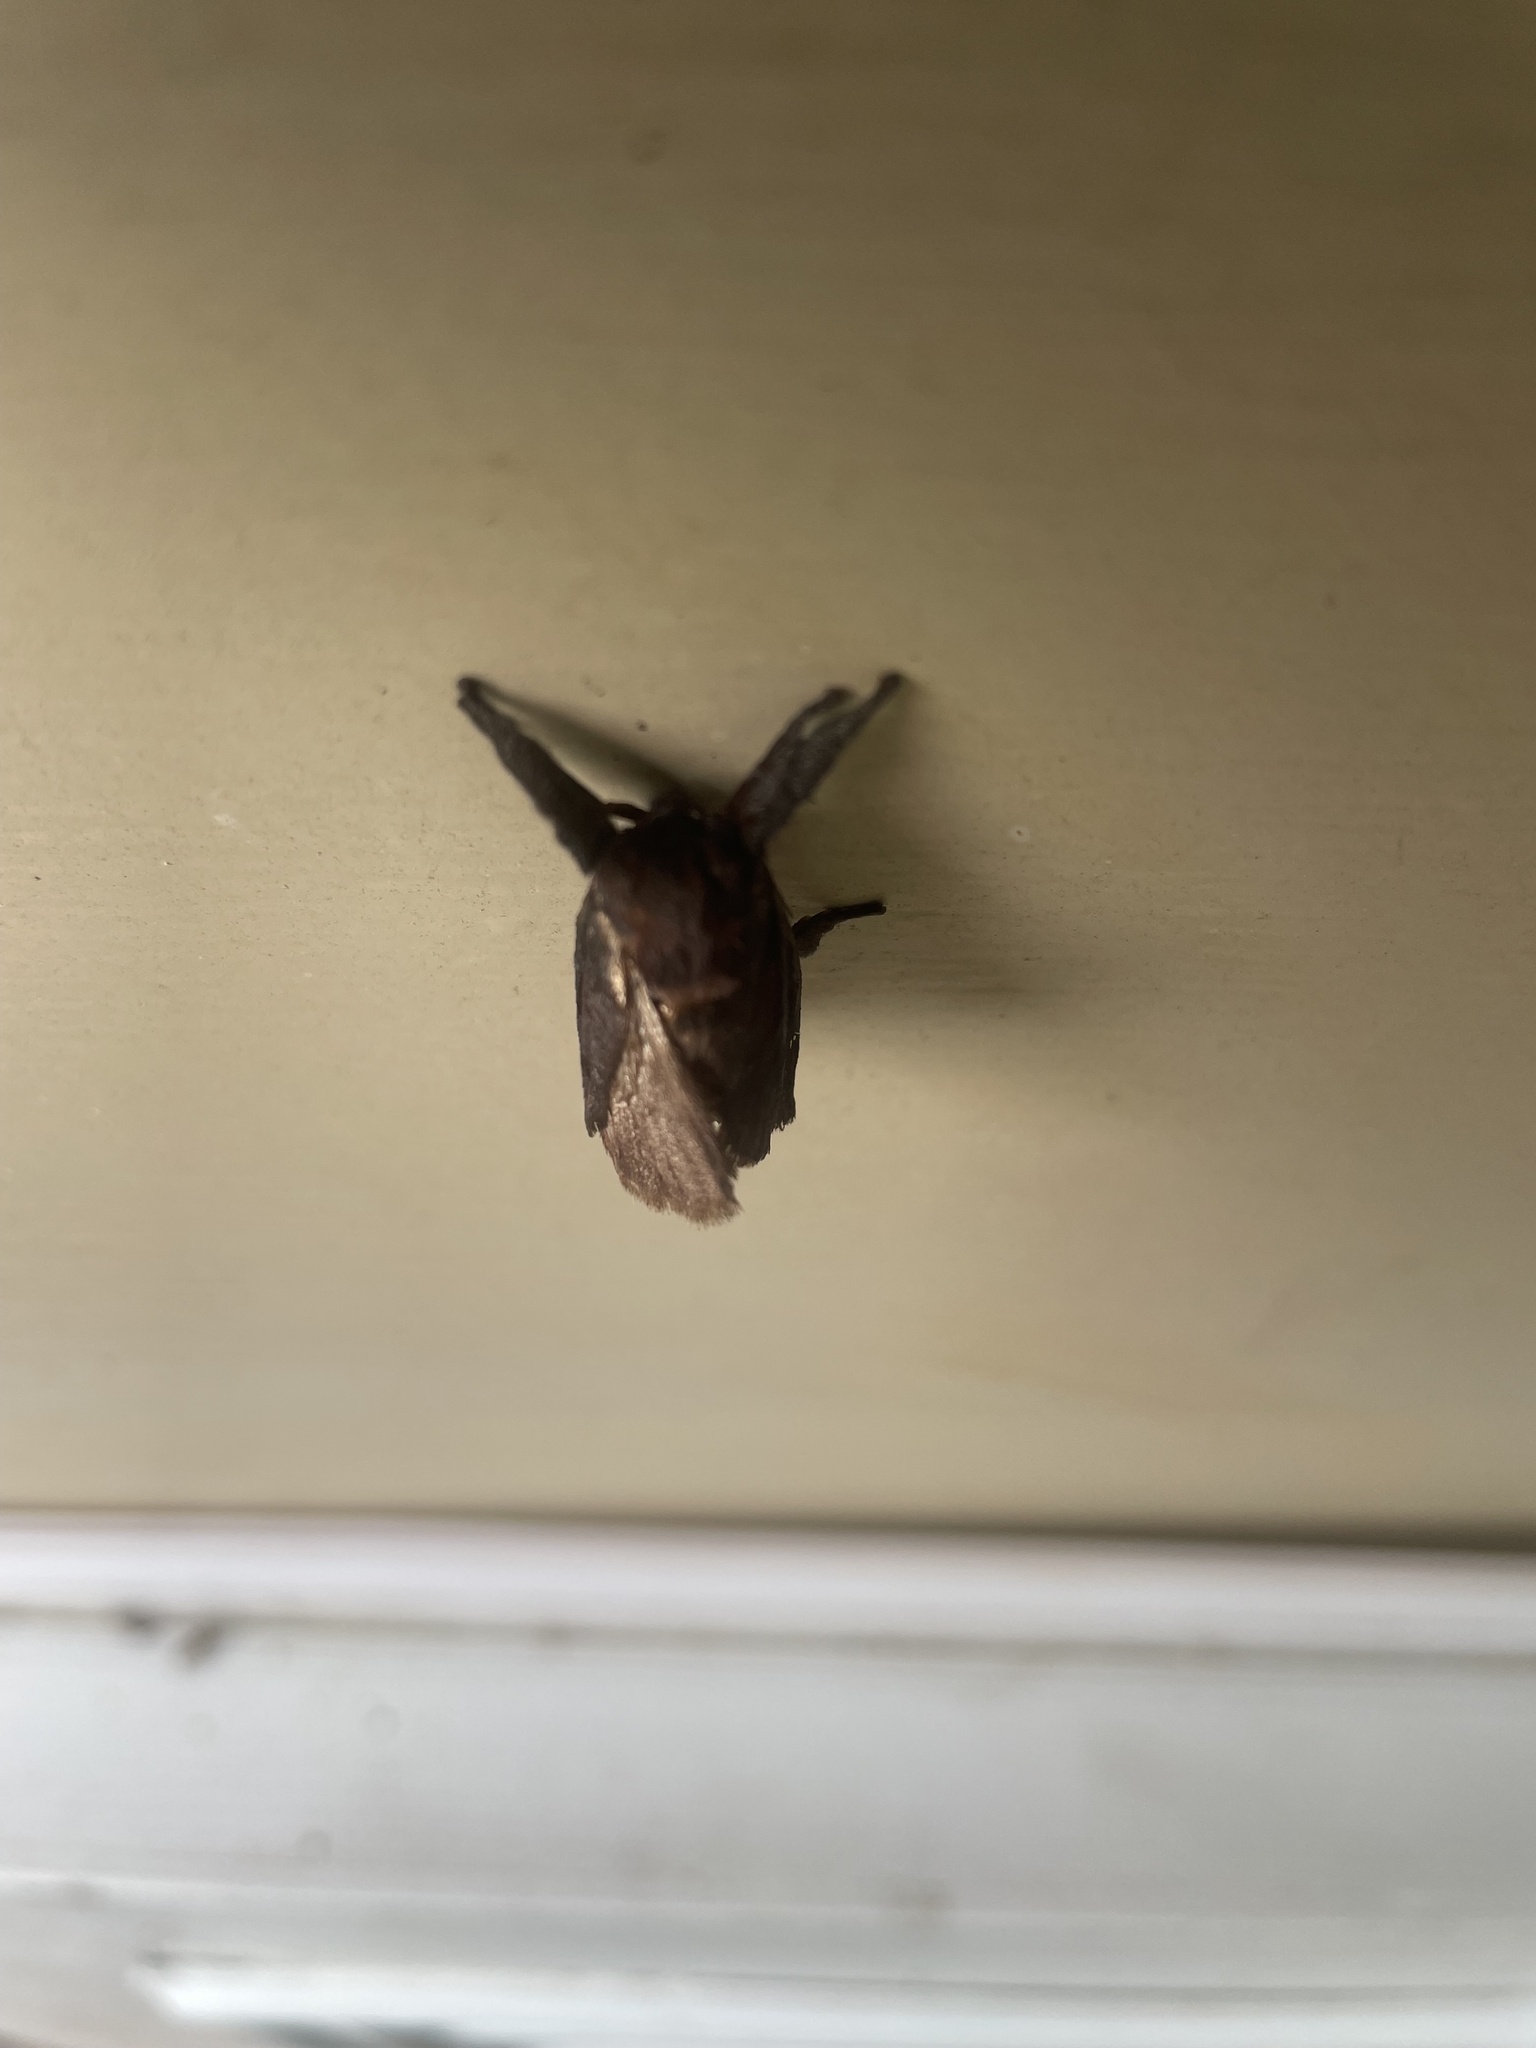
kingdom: Animalia
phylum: Arthropoda
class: Insecta
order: Lepidoptera
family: Limacodidae
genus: Acharia
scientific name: Acharia stimulea
